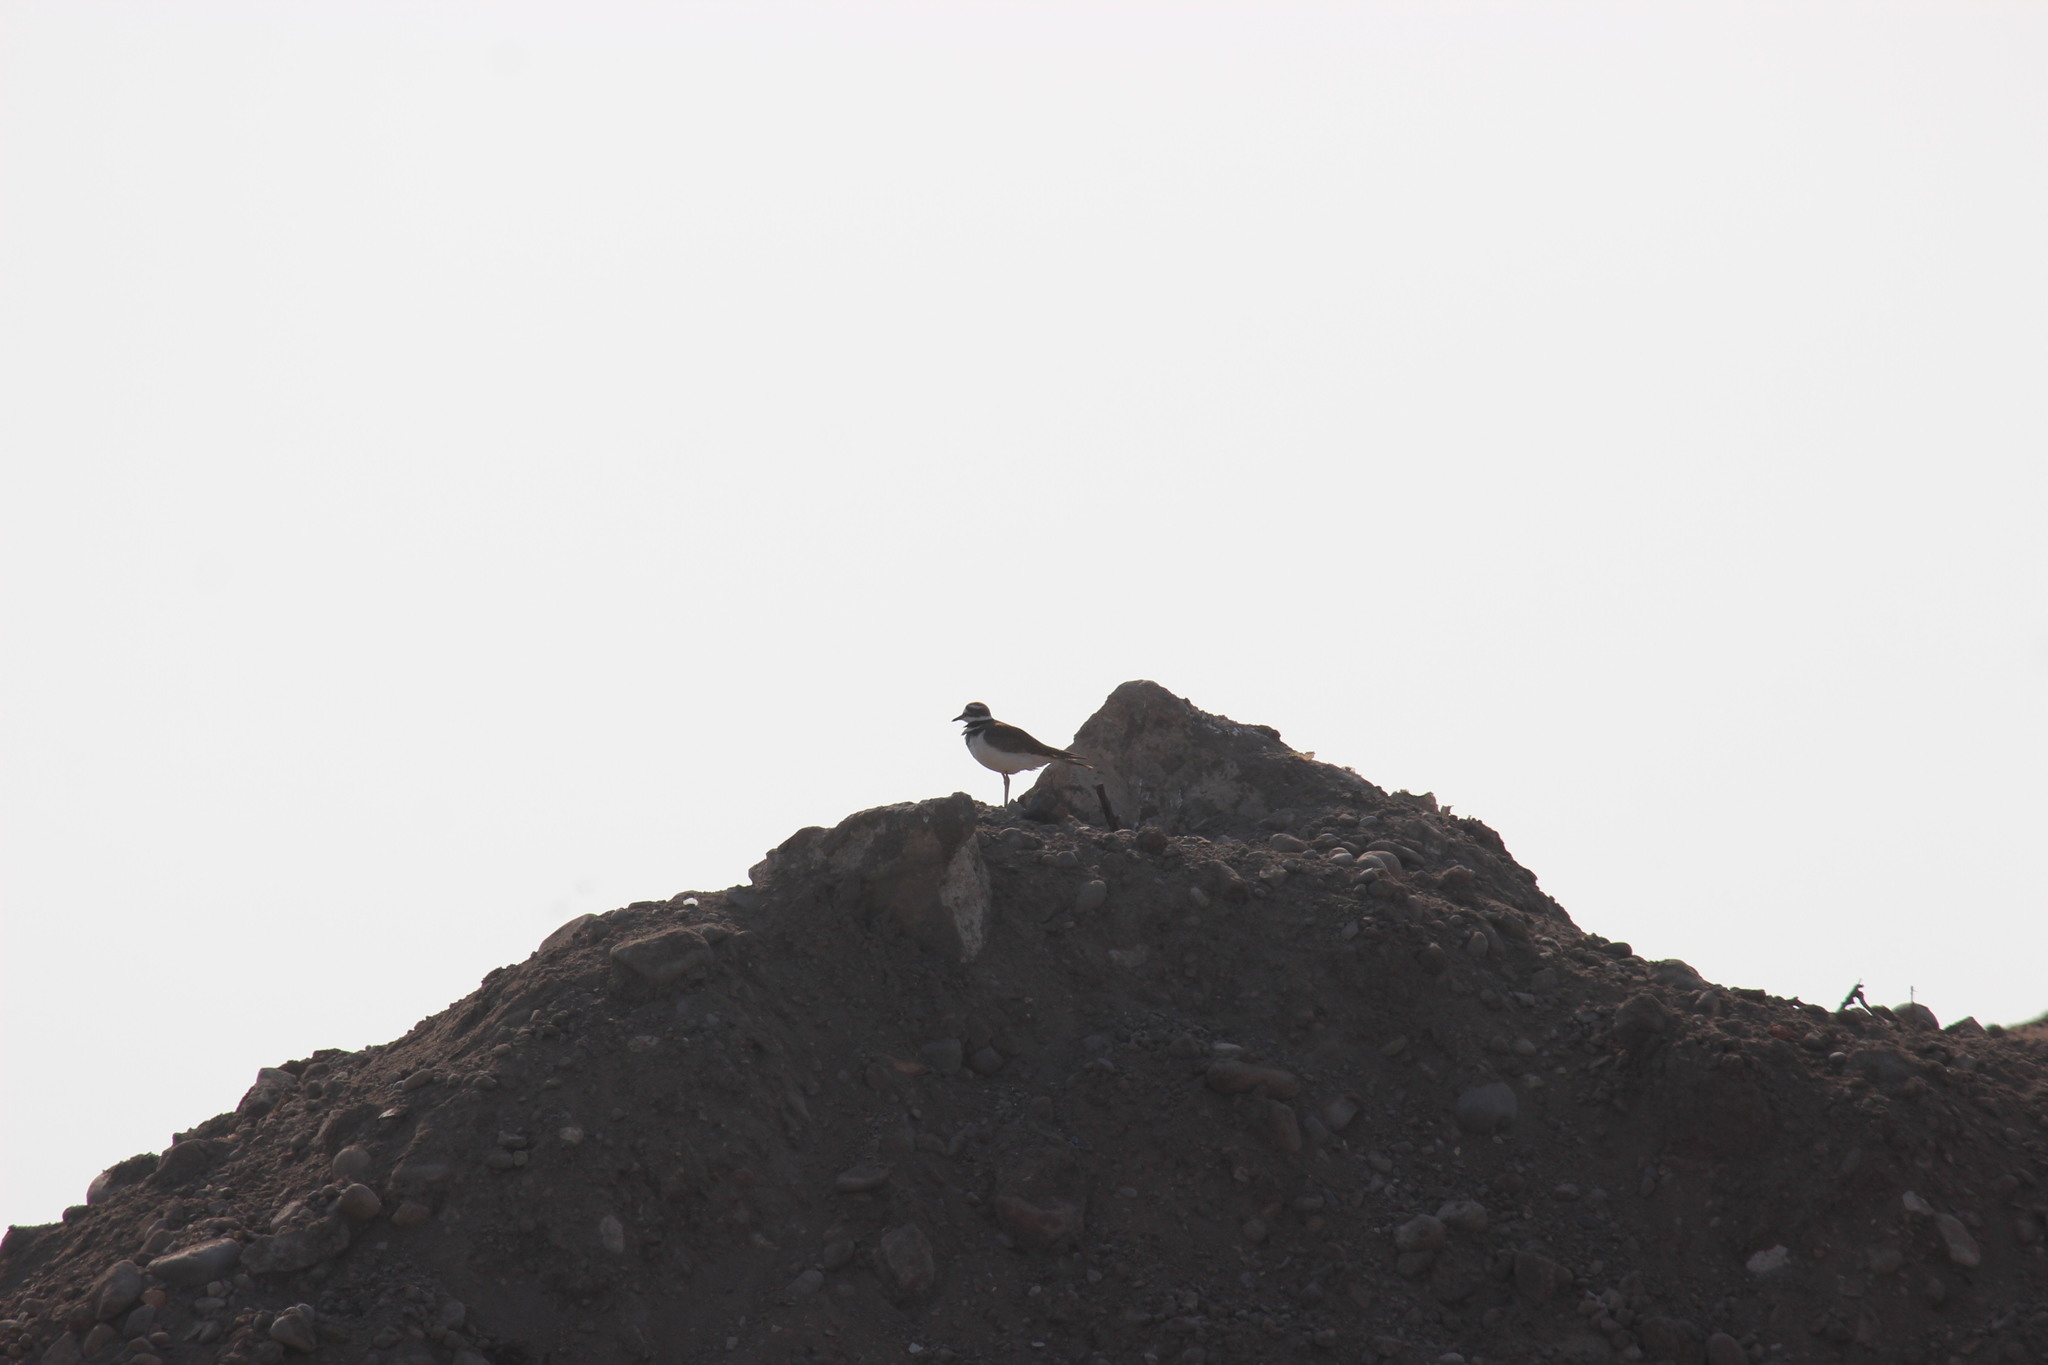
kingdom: Animalia
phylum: Chordata
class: Aves
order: Charadriiformes
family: Charadriidae
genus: Charadrius
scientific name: Charadrius vociferus
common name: Killdeer
